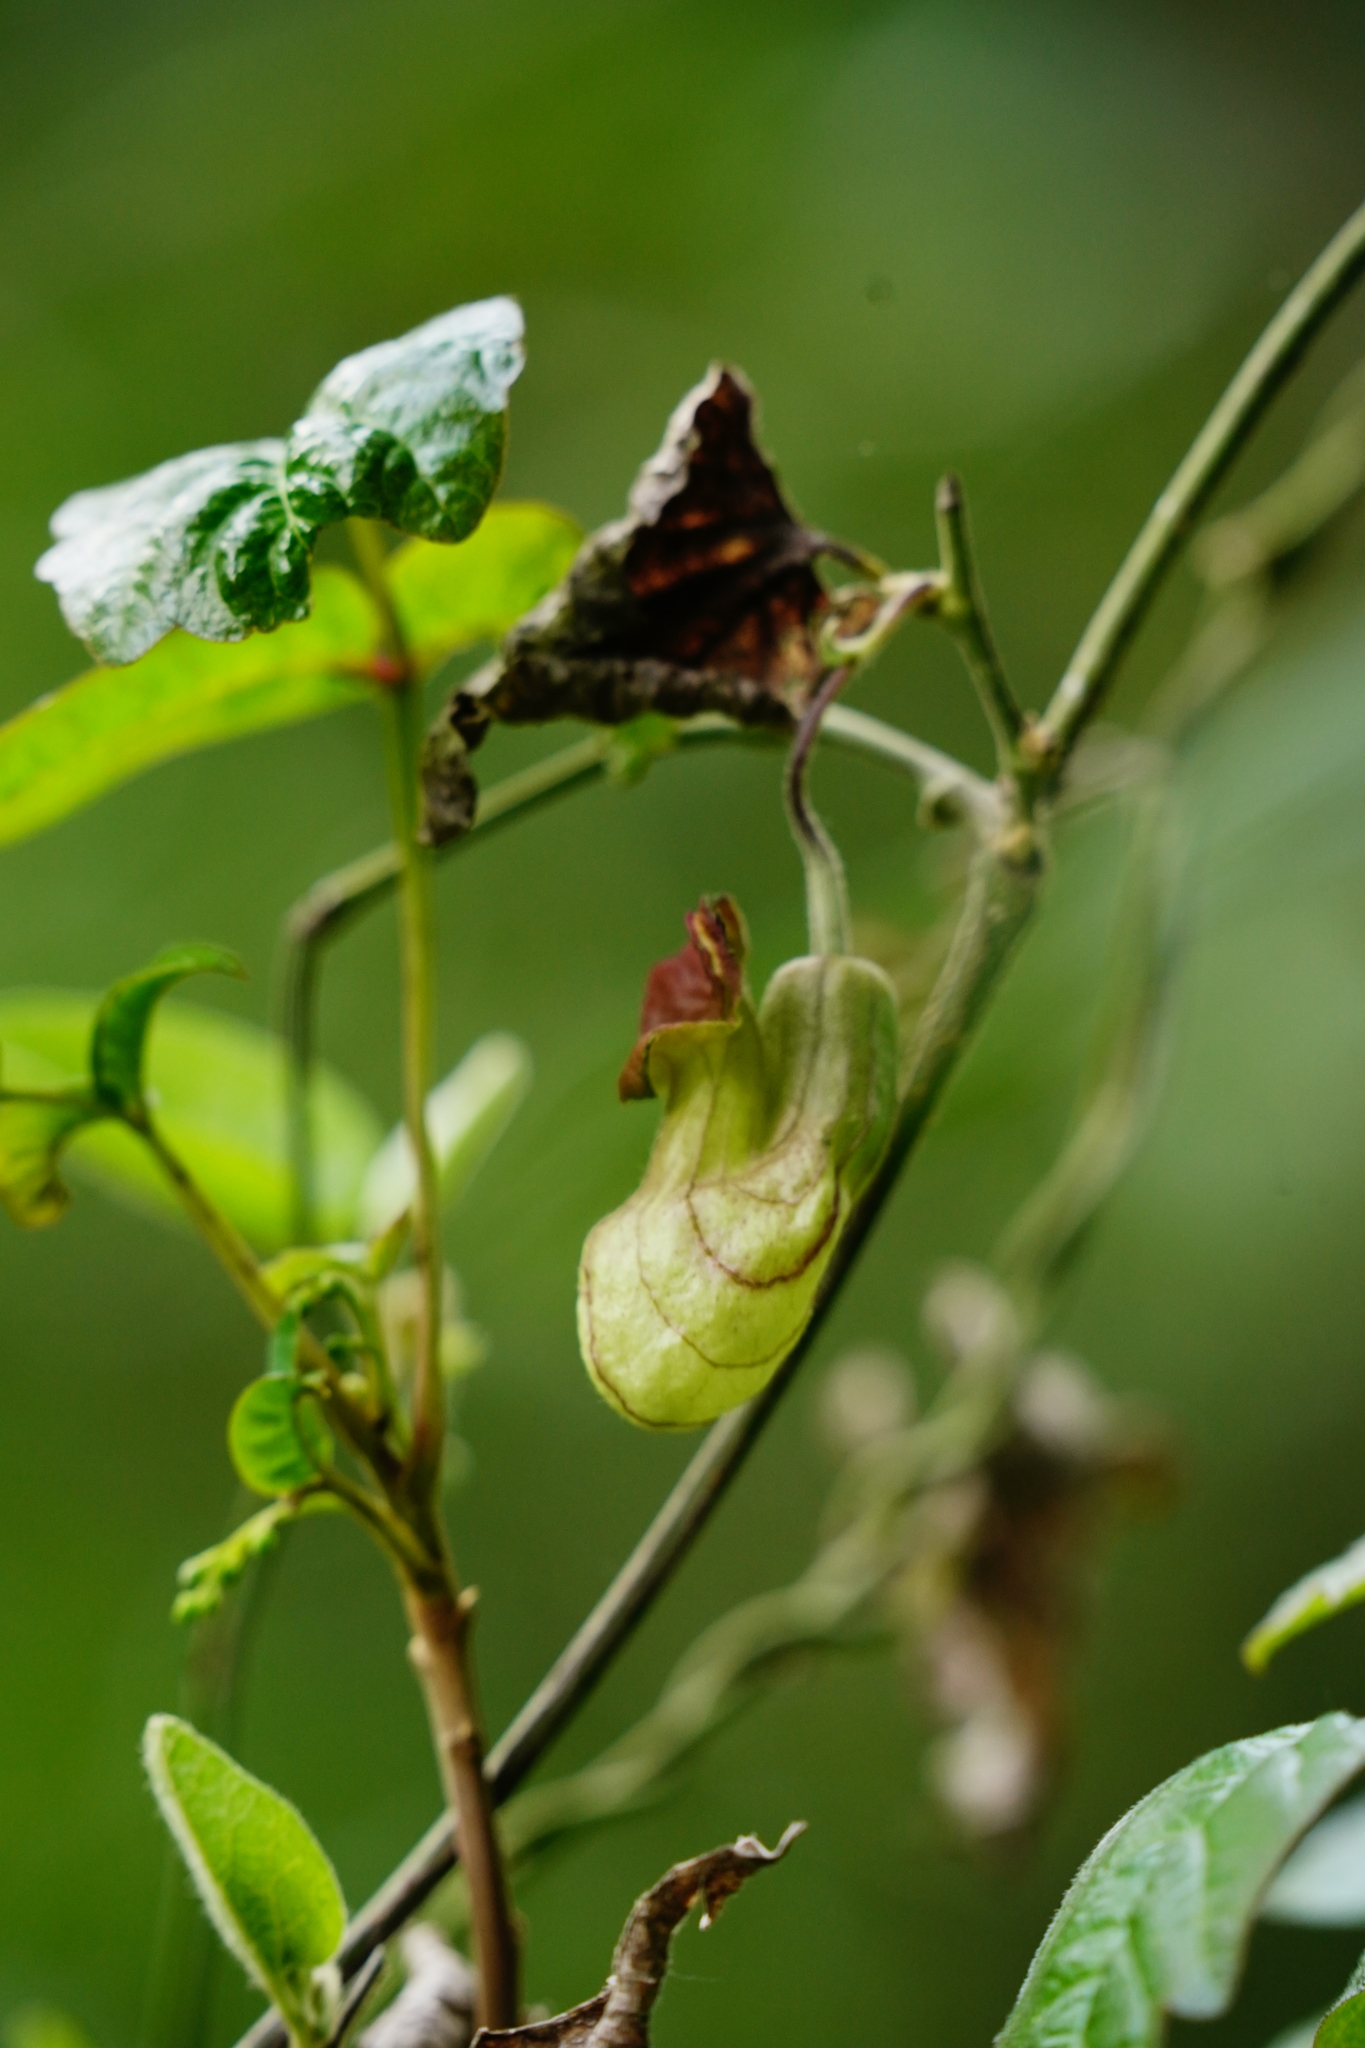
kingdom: Plantae
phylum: Tracheophyta
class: Magnoliopsida
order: Piperales
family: Aristolochiaceae
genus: Isotrema
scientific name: Isotrema californicum
